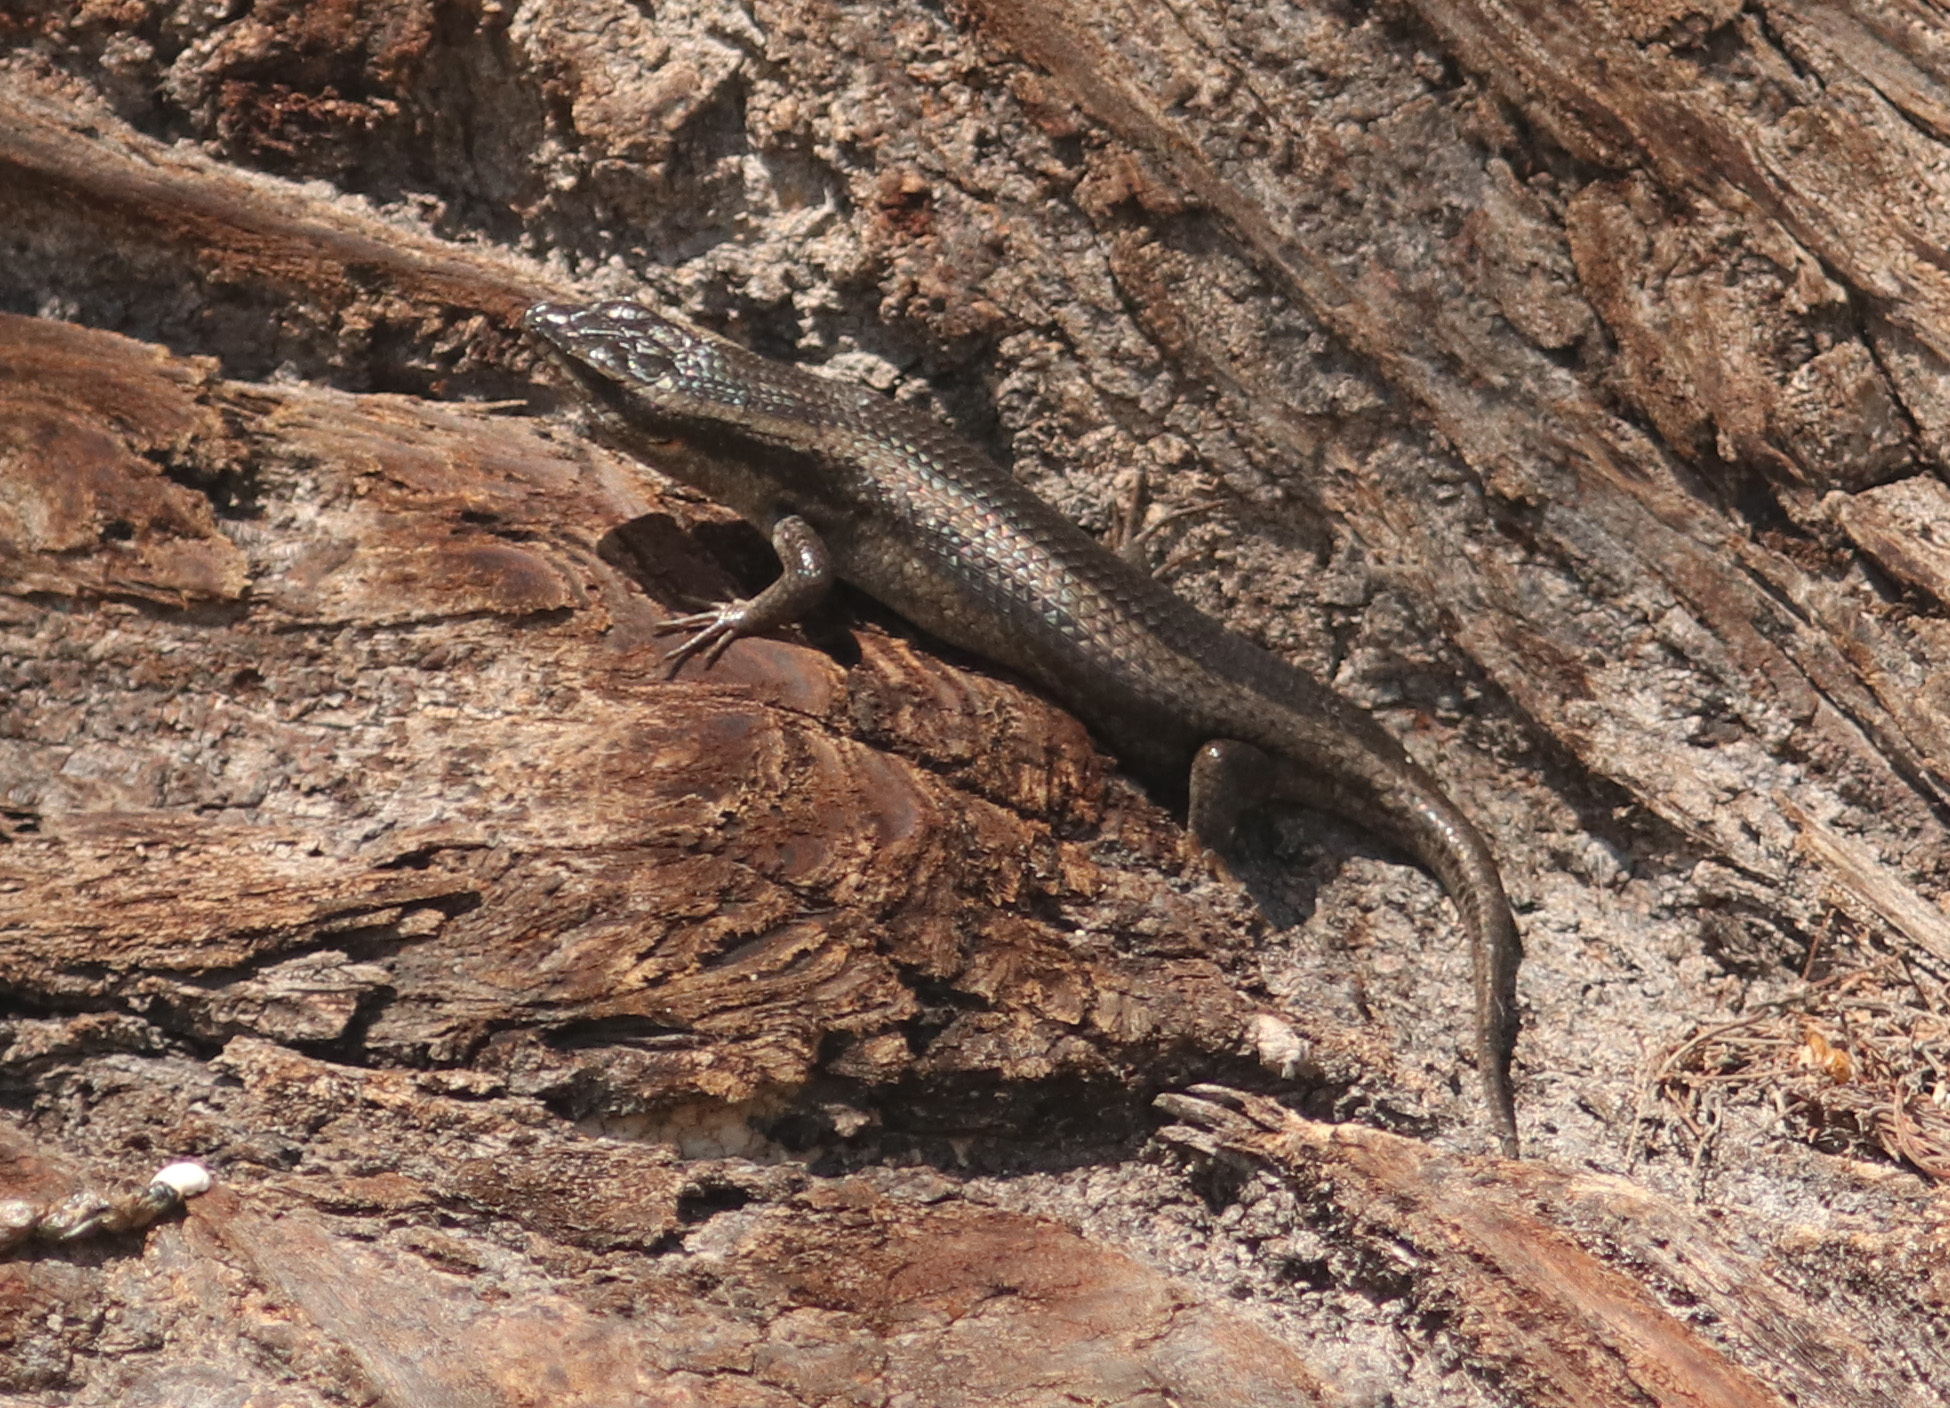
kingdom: Animalia
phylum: Chordata
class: Squamata
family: Scincidae
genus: Trachylepis
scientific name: Trachylepis spilogaster
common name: Kalahari tree skink
